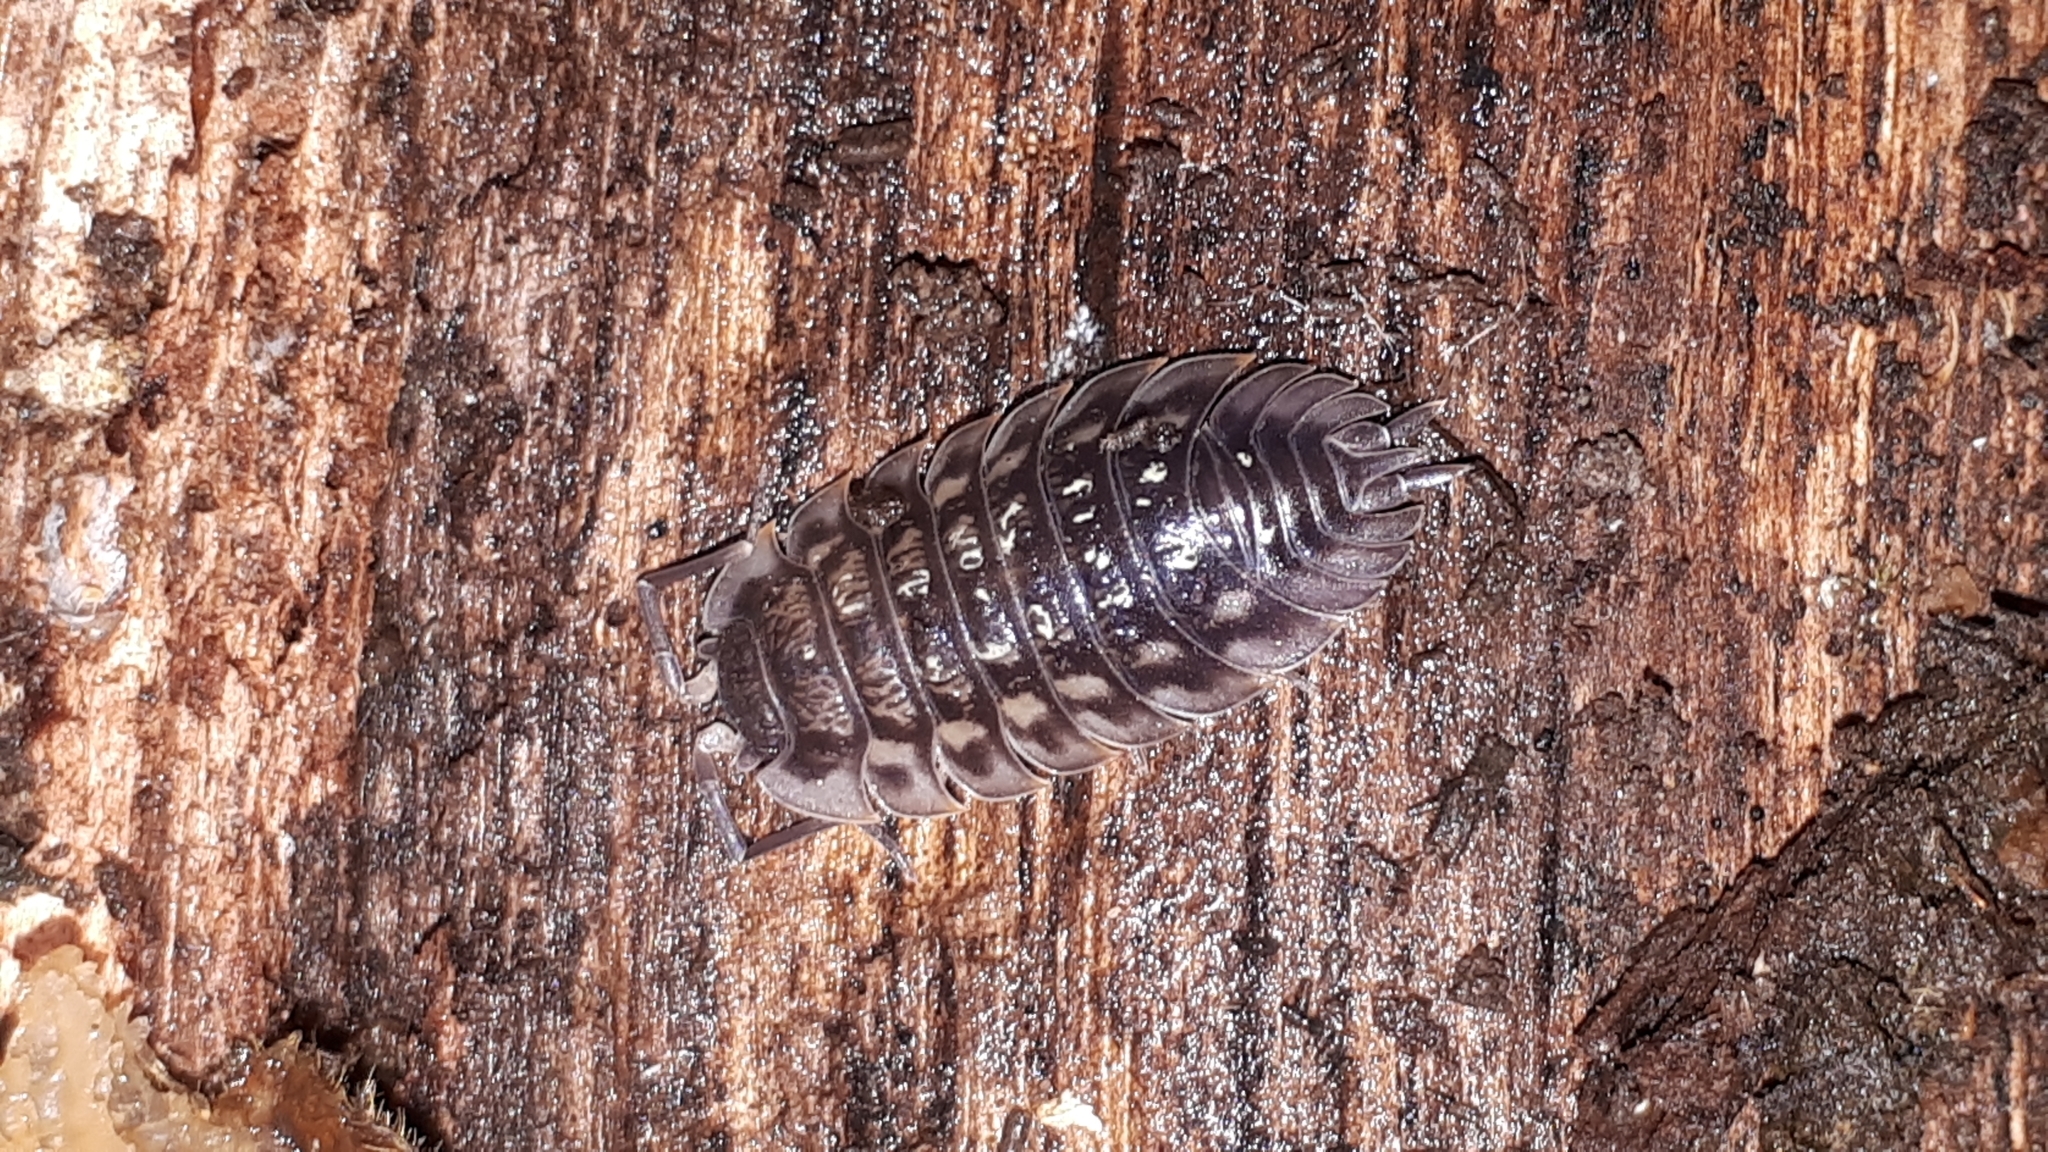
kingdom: Animalia
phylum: Arthropoda
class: Malacostraca
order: Isopoda
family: Oniscidae
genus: Oniscus
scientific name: Oniscus asellus
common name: Common shiny woodlouse
